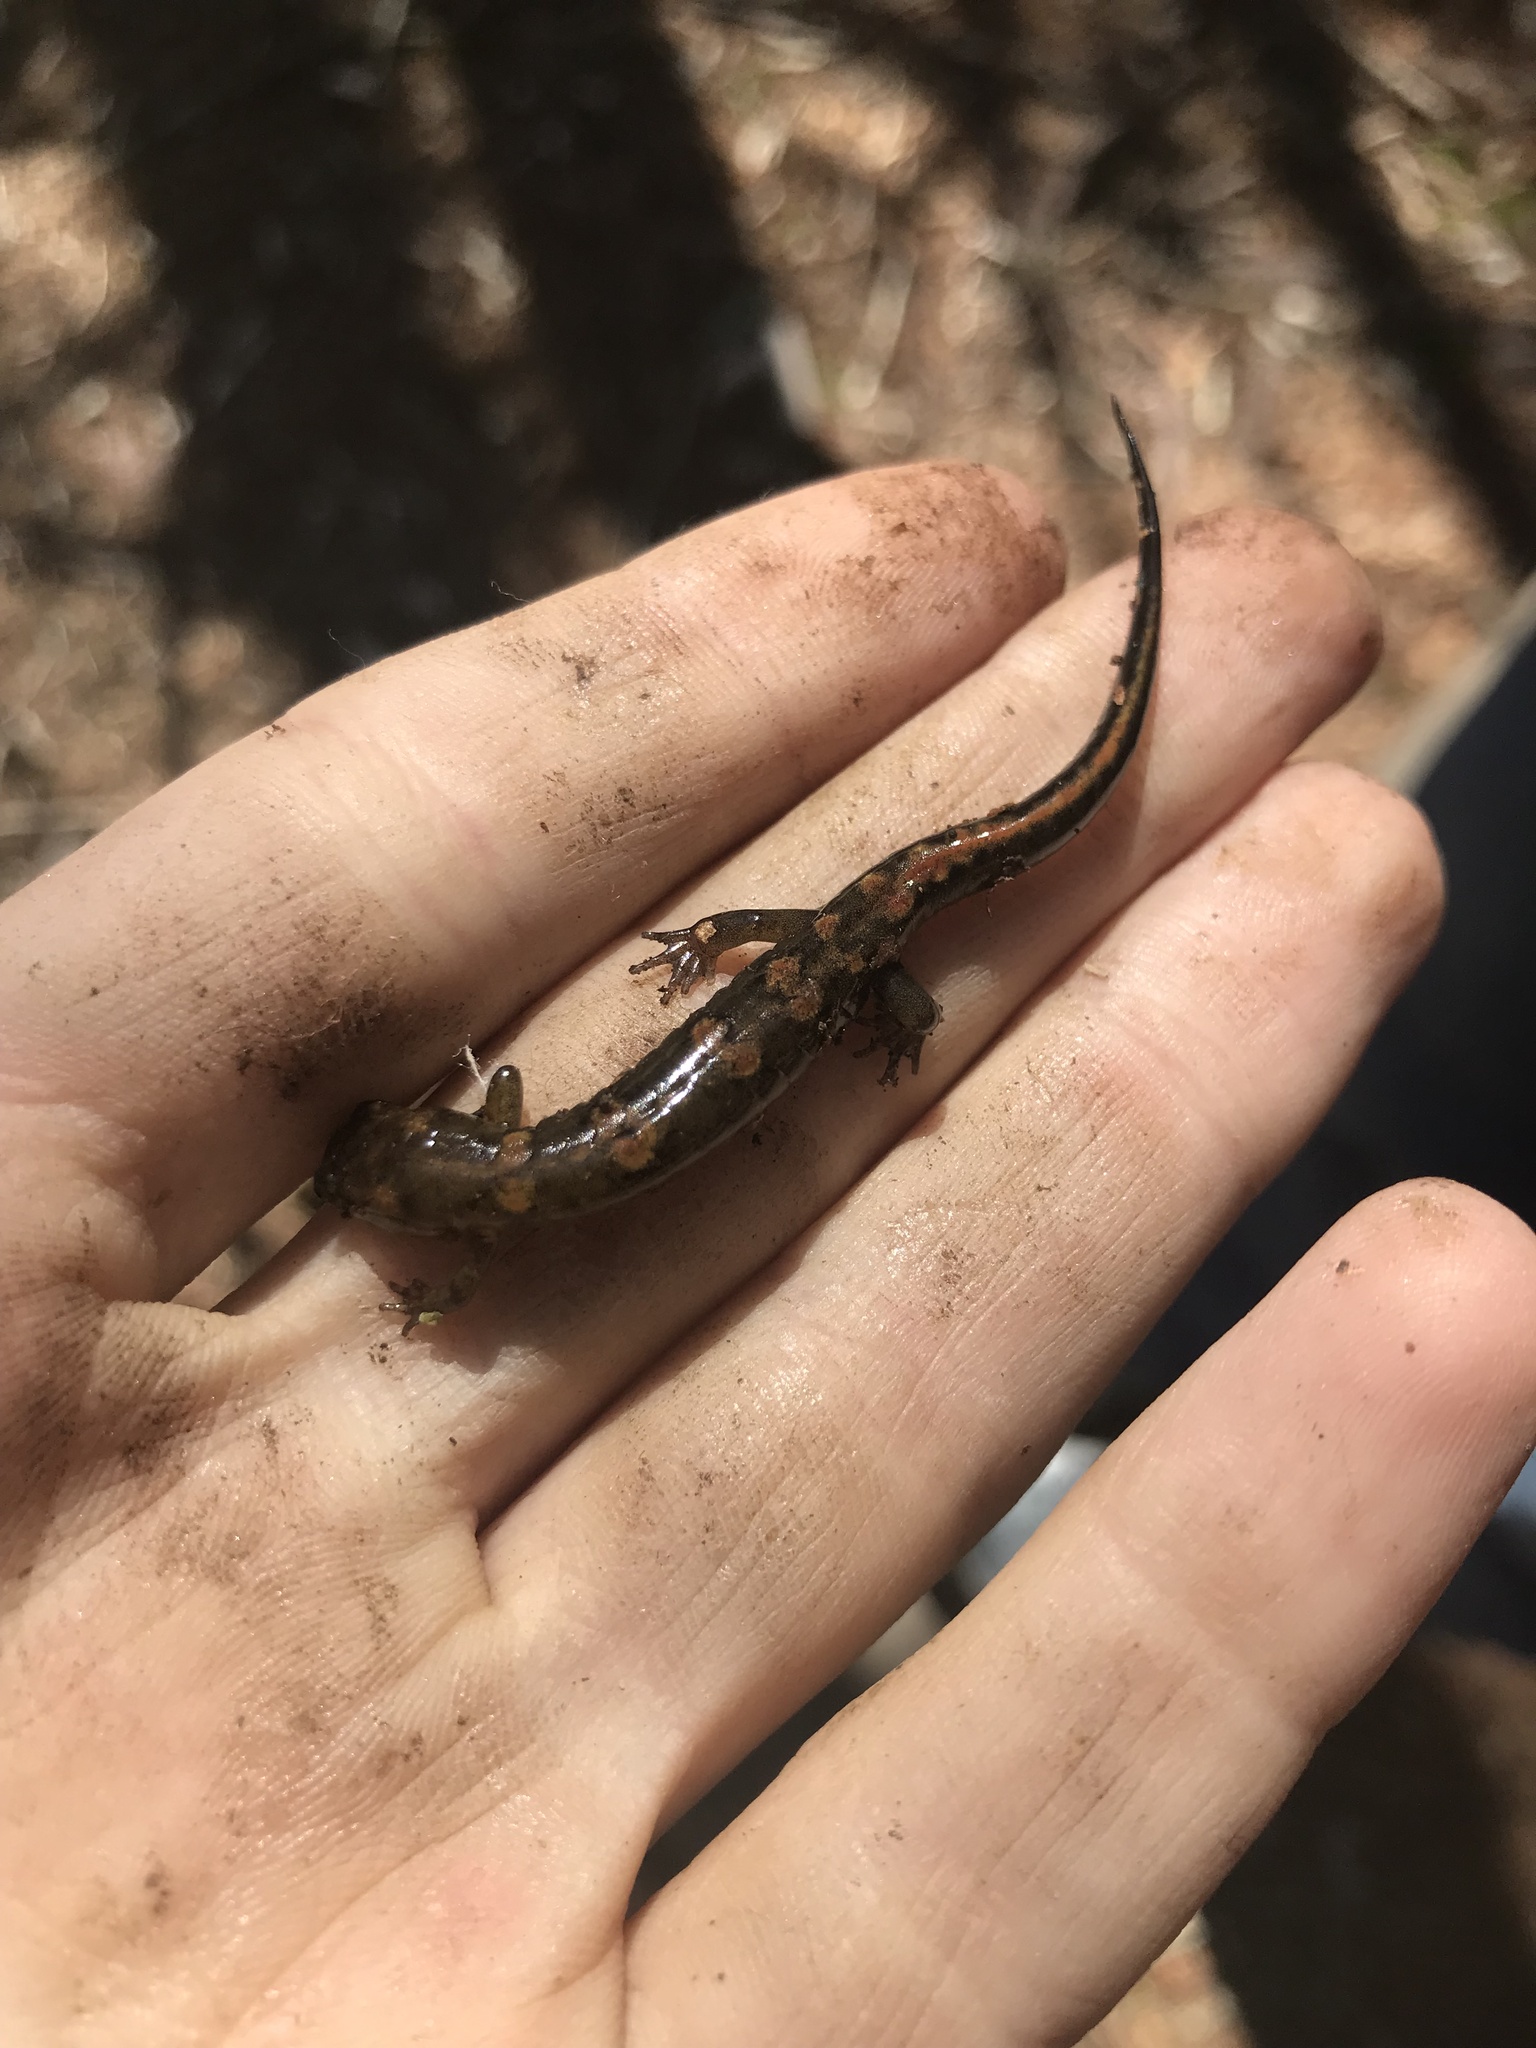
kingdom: Animalia
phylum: Chordata
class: Amphibia
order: Caudata
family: Plethodontidae
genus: Desmognathus
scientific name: Desmognathus imitator
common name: Imitator salamander
